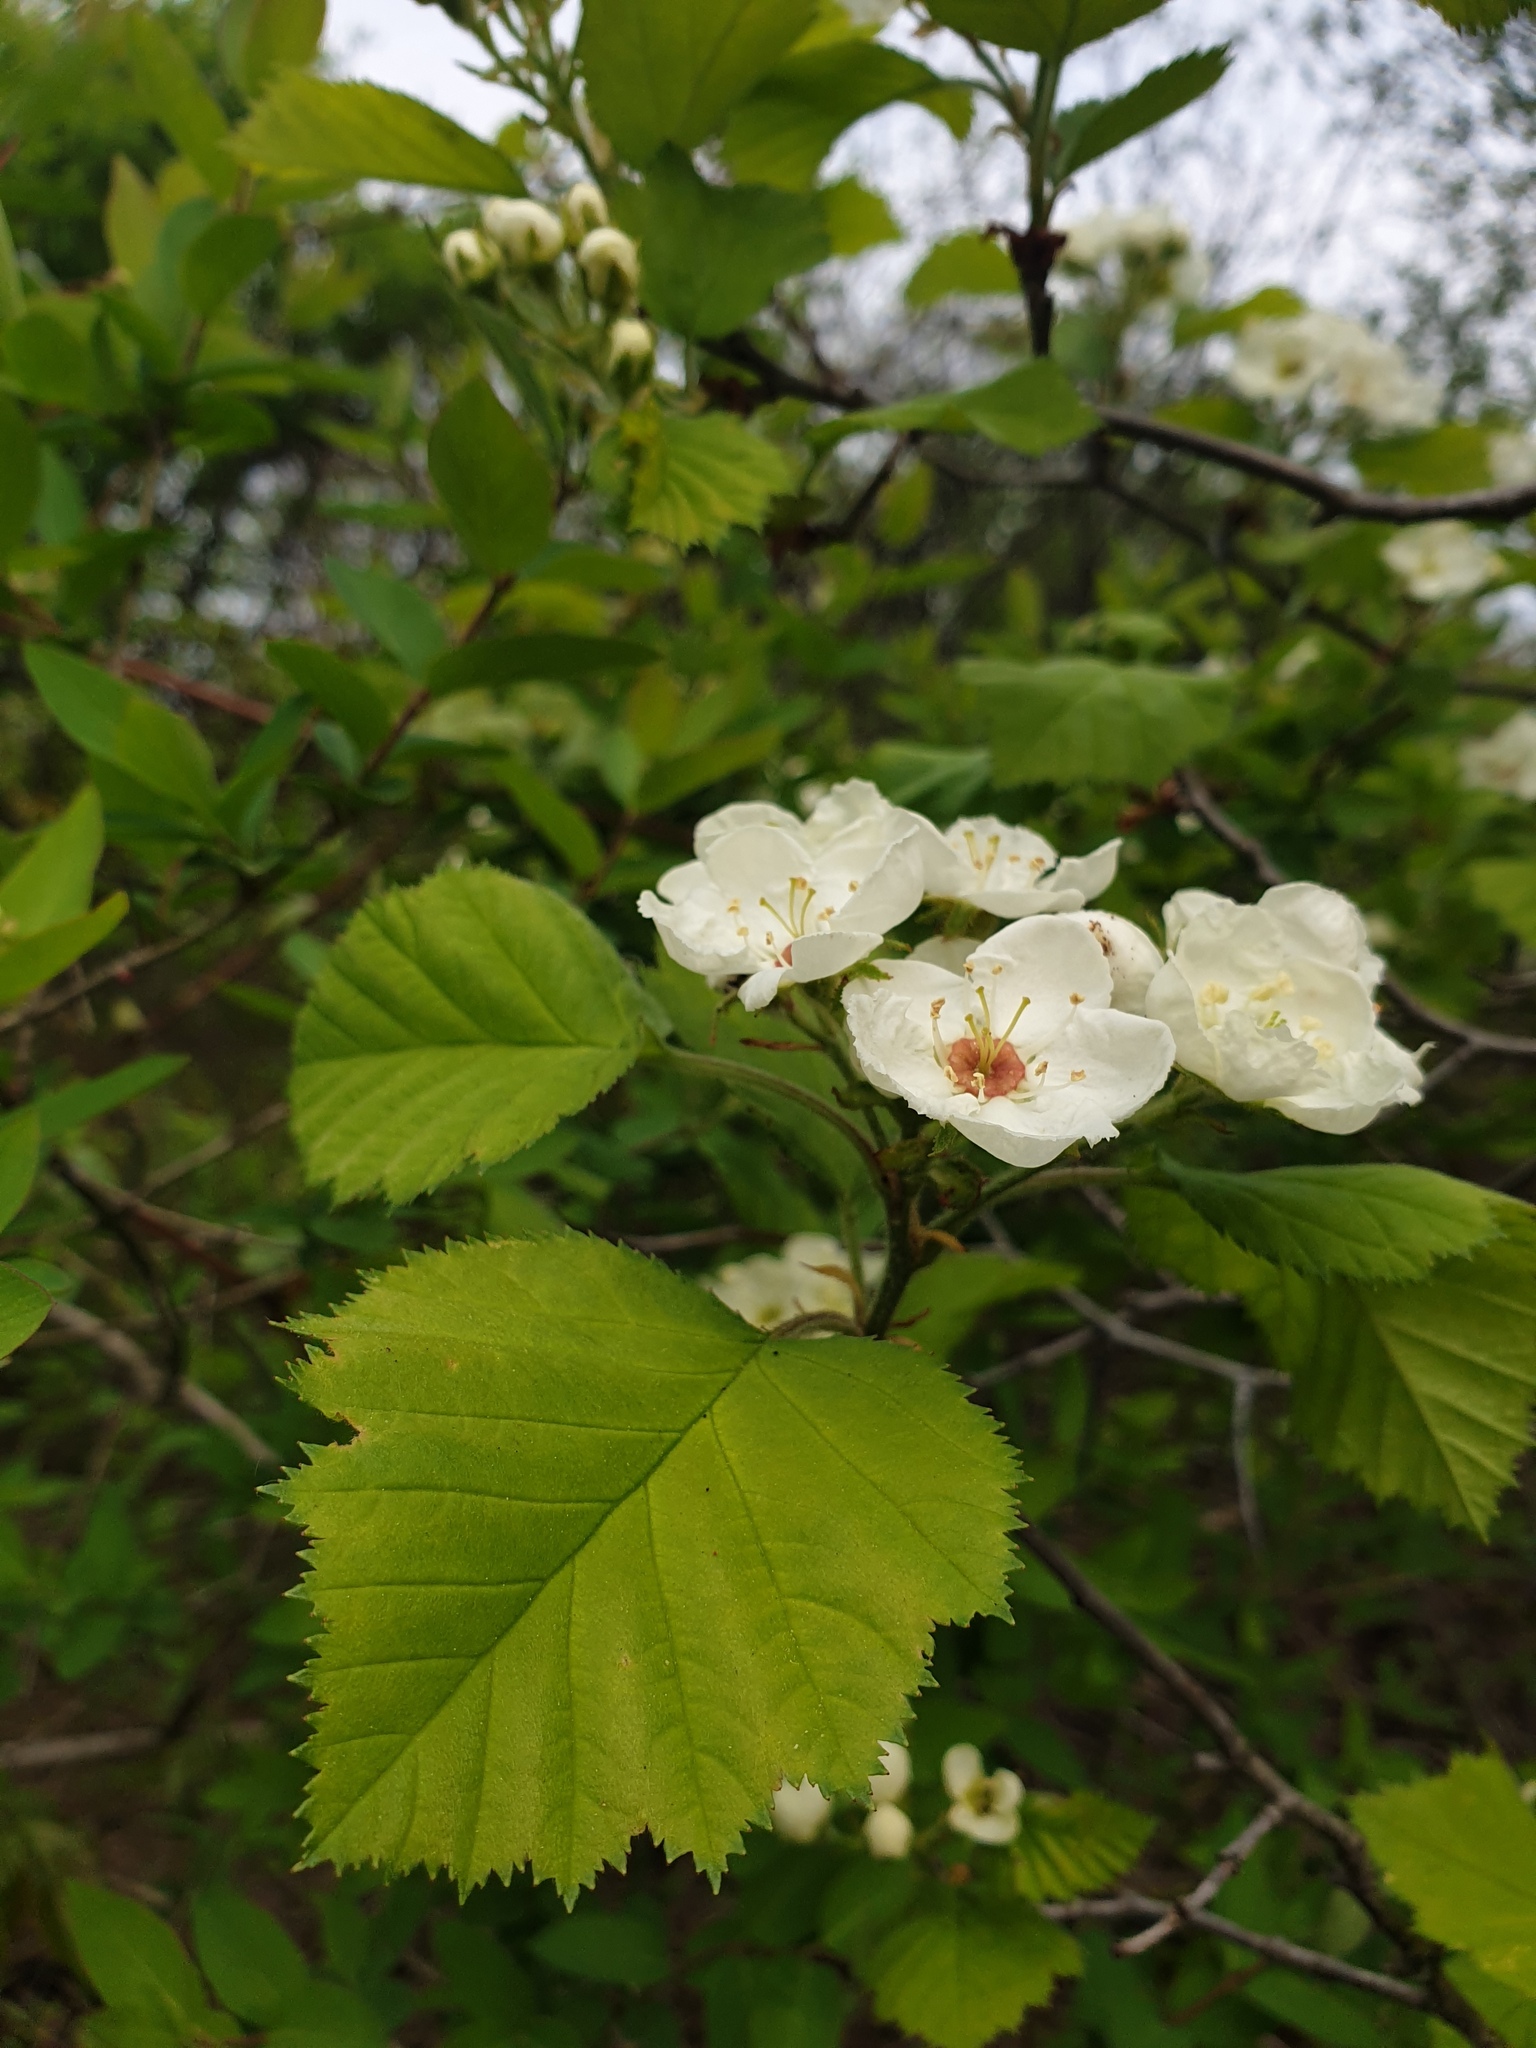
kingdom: Plantae
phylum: Tracheophyta
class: Magnoliopsida
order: Rosales
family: Rosaceae
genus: Crataegus
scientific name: Crataegus submollis
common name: Hairy cockspurthorn
